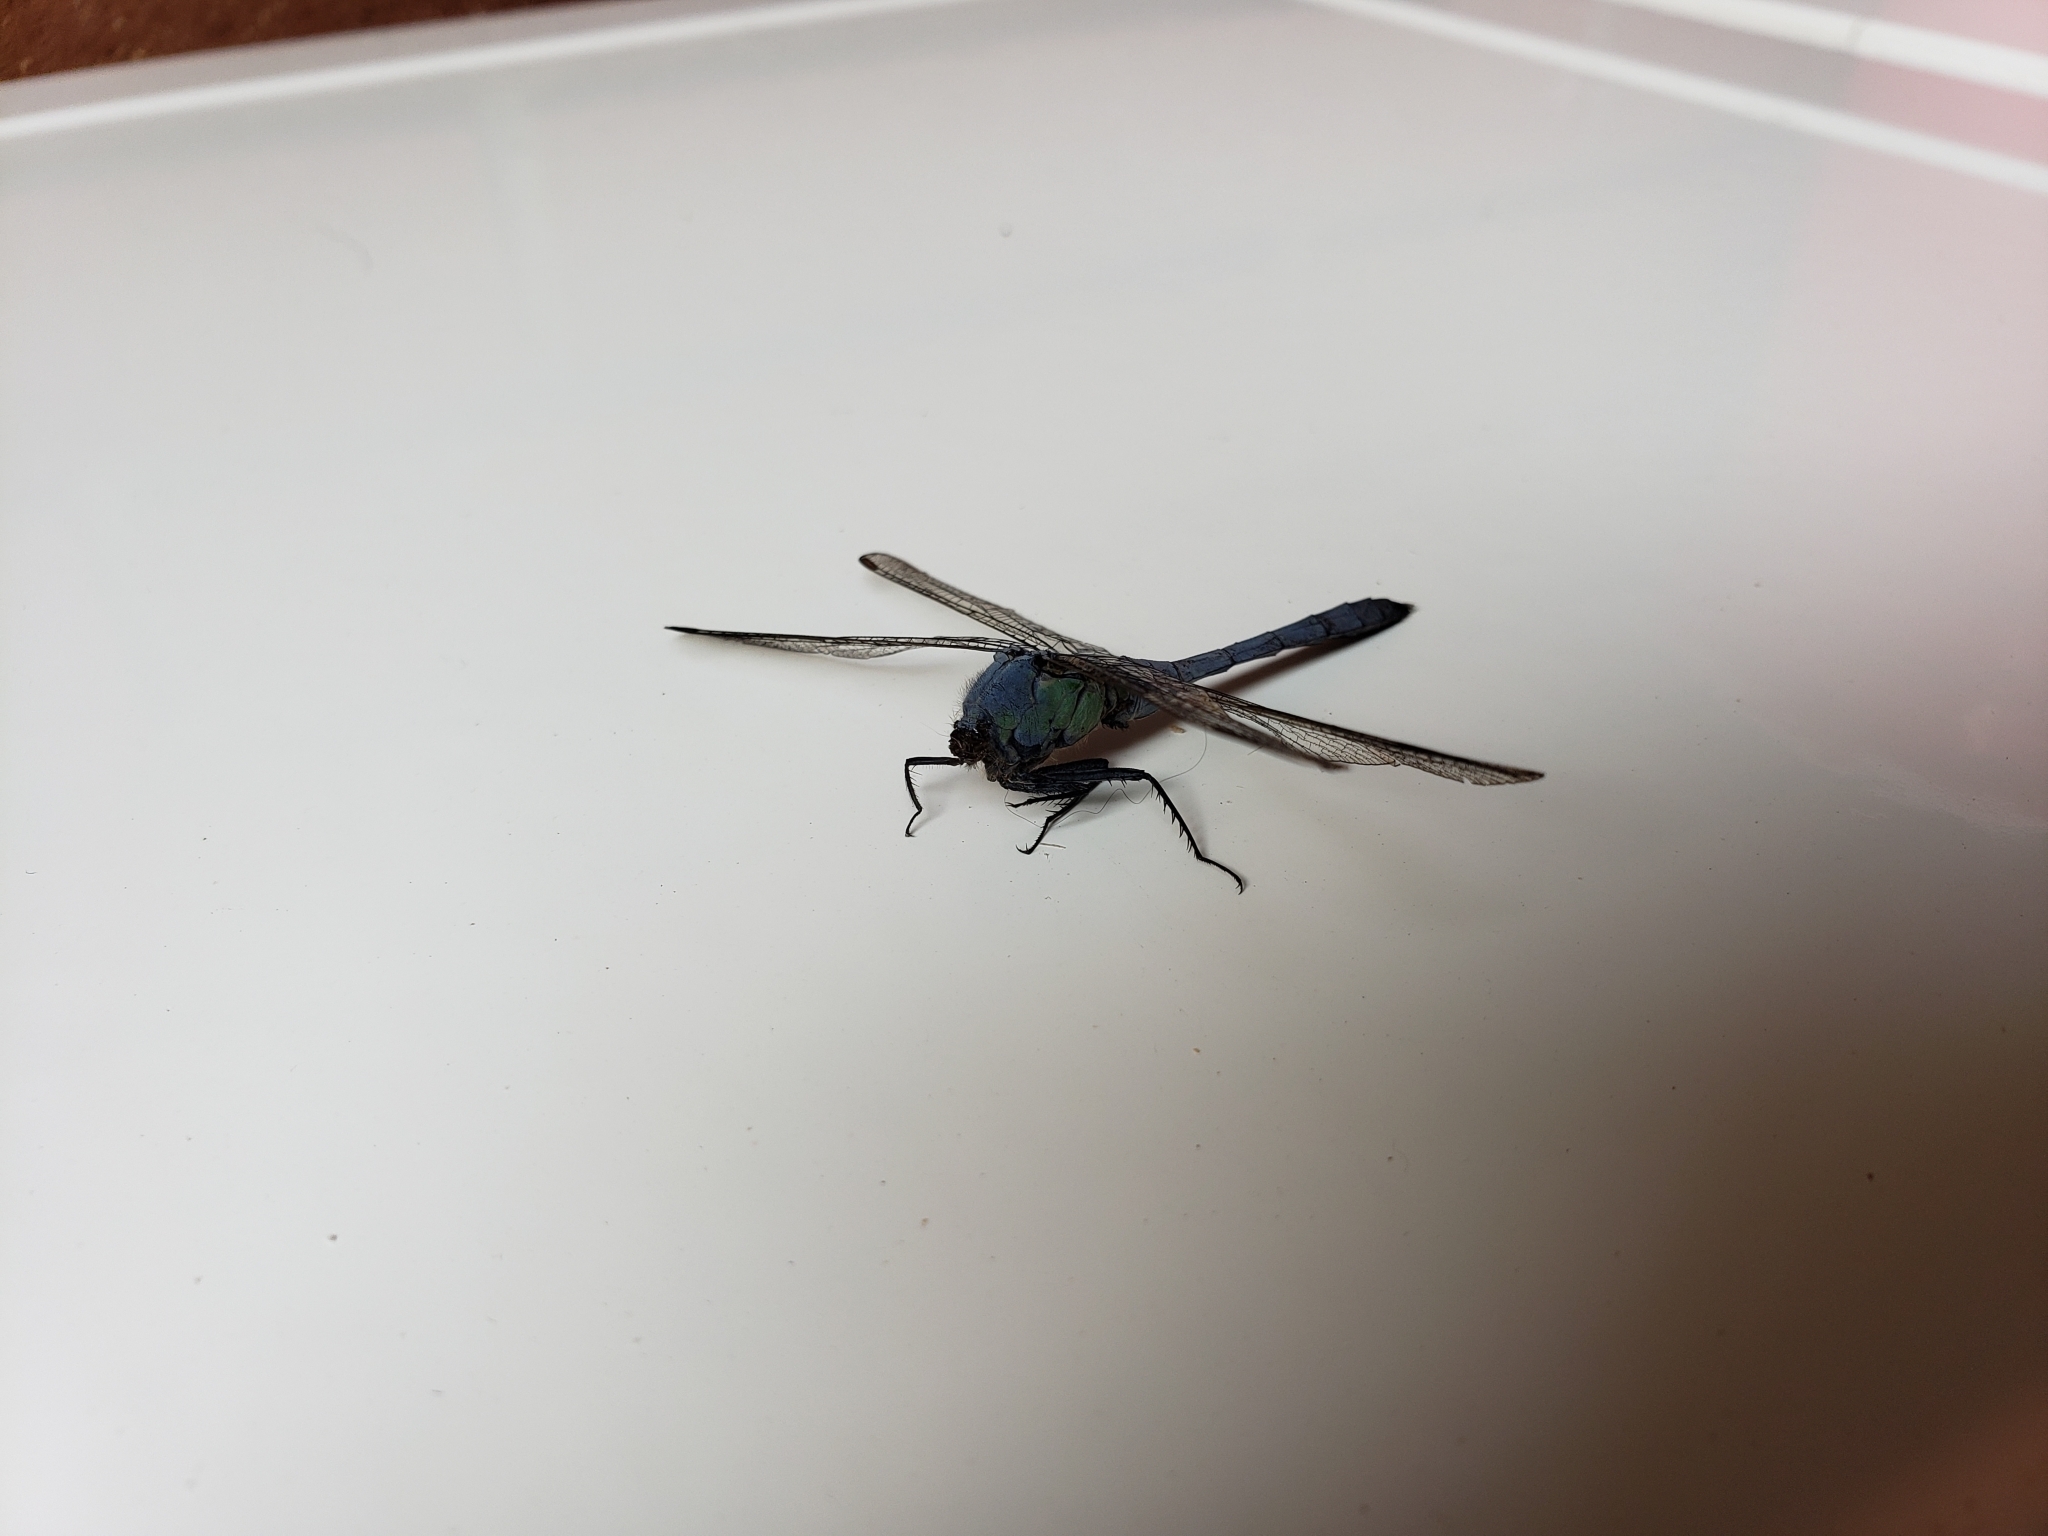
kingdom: Animalia
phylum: Arthropoda
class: Insecta
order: Odonata
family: Libellulidae
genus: Erythemis
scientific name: Erythemis simplicicollis
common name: Eastern pondhawk
